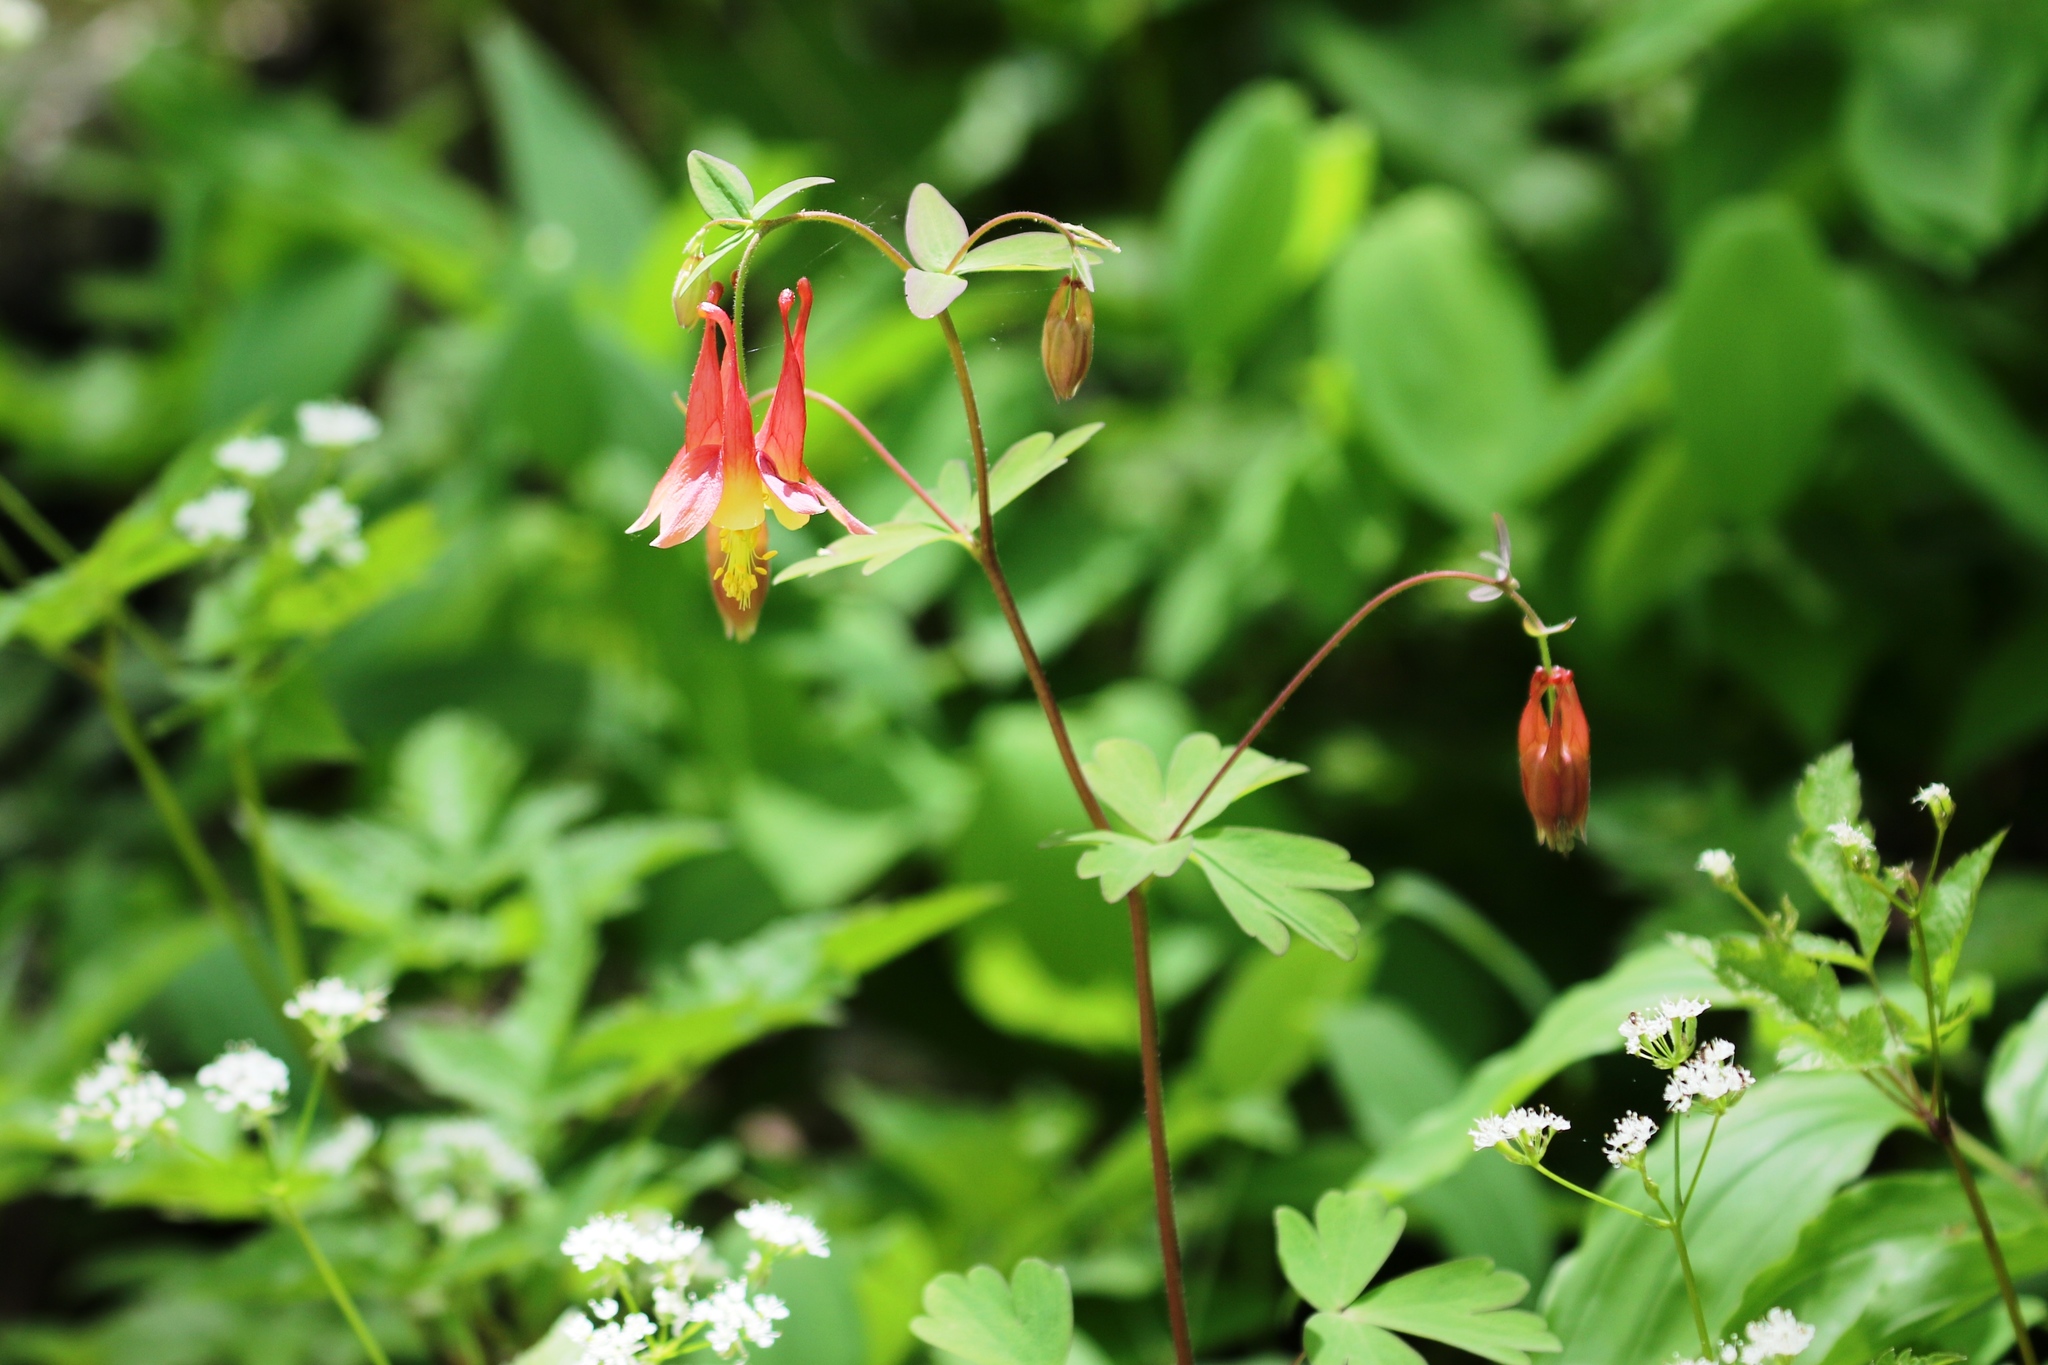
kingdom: Plantae
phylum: Tracheophyta
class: Magnoliopsida
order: Ranunculales
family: Ranunculaceae
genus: Aquilegia
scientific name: Aquilegia canadensis
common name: American columbine
